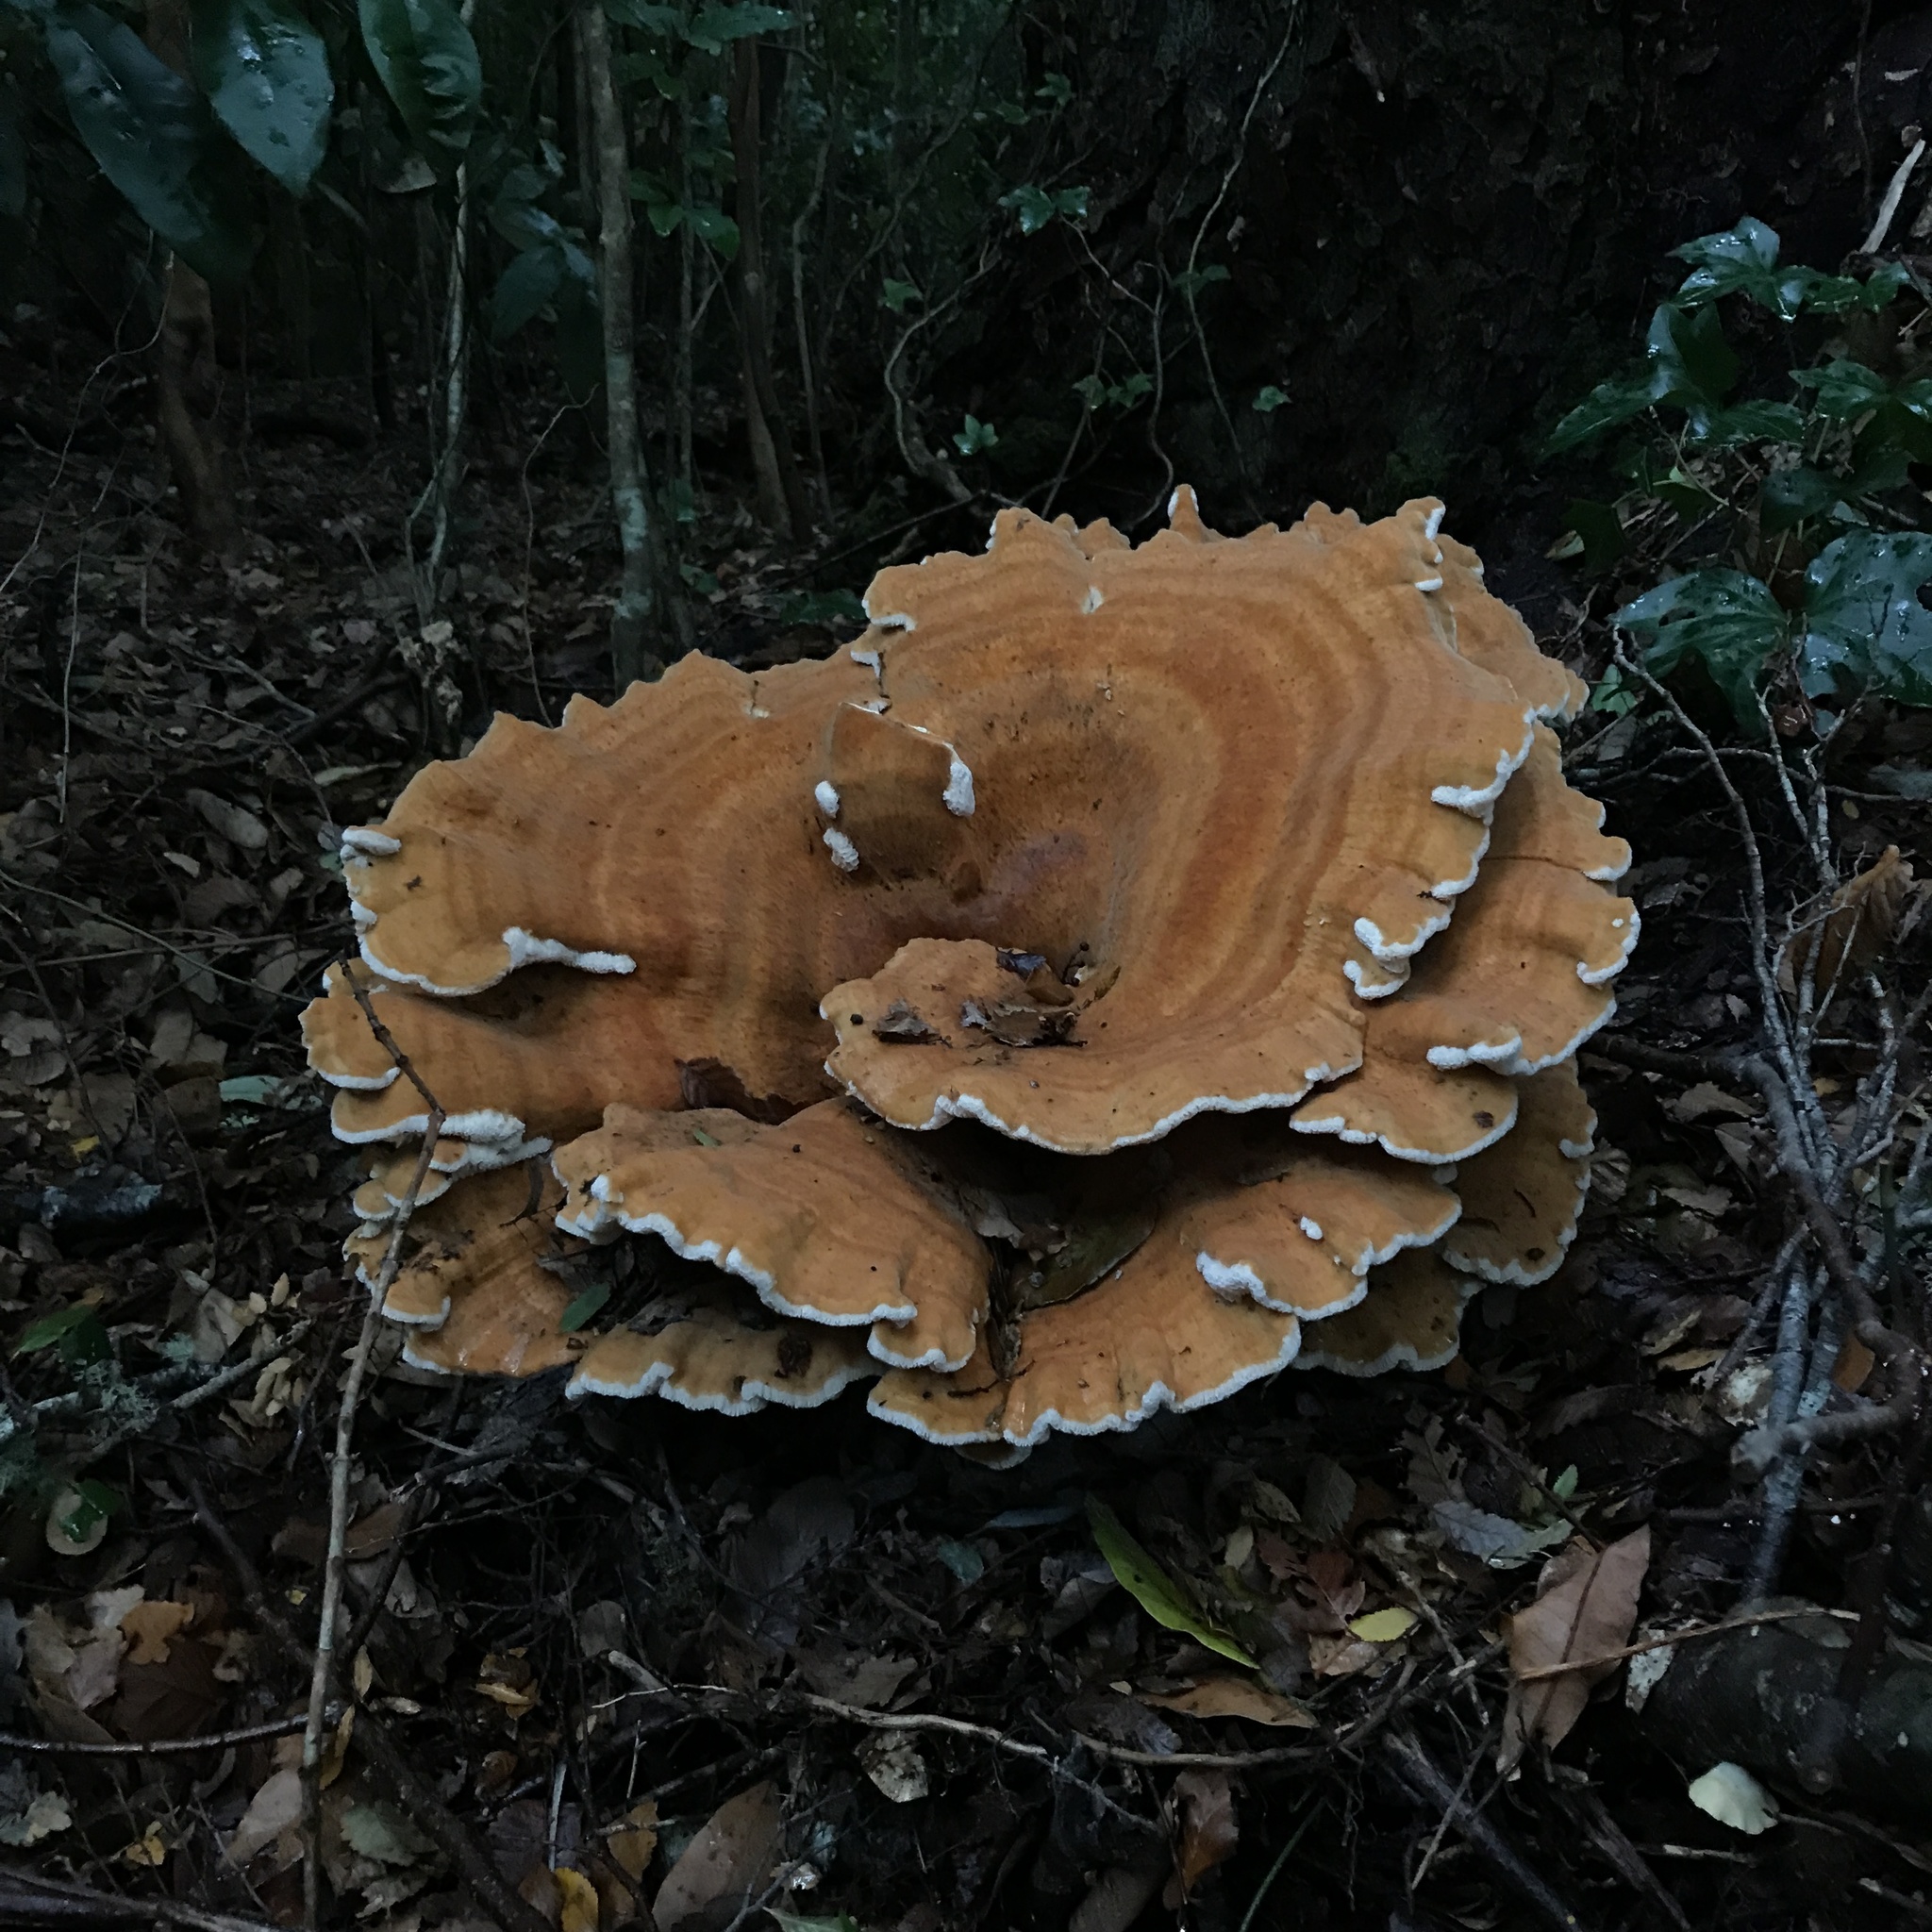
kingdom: Fungi
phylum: Basidiomycota
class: Agaricomycetes
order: Russulales
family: Bondarzewiaceae
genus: Bondarzewia
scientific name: Bondarzewia guaitecasensis
